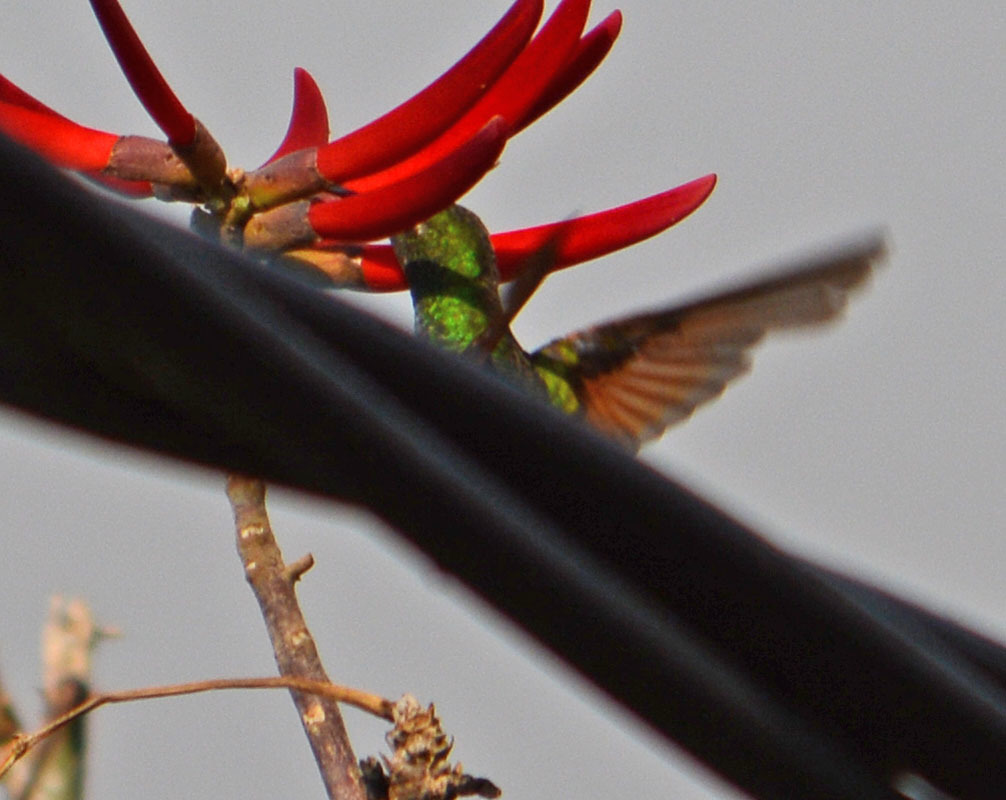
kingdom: Animalia
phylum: Chordata
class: Aves
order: Apodiformes
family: Trochilidae
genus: Saucerottia
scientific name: Saucerottia beryllina
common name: Berylline hummingbird
